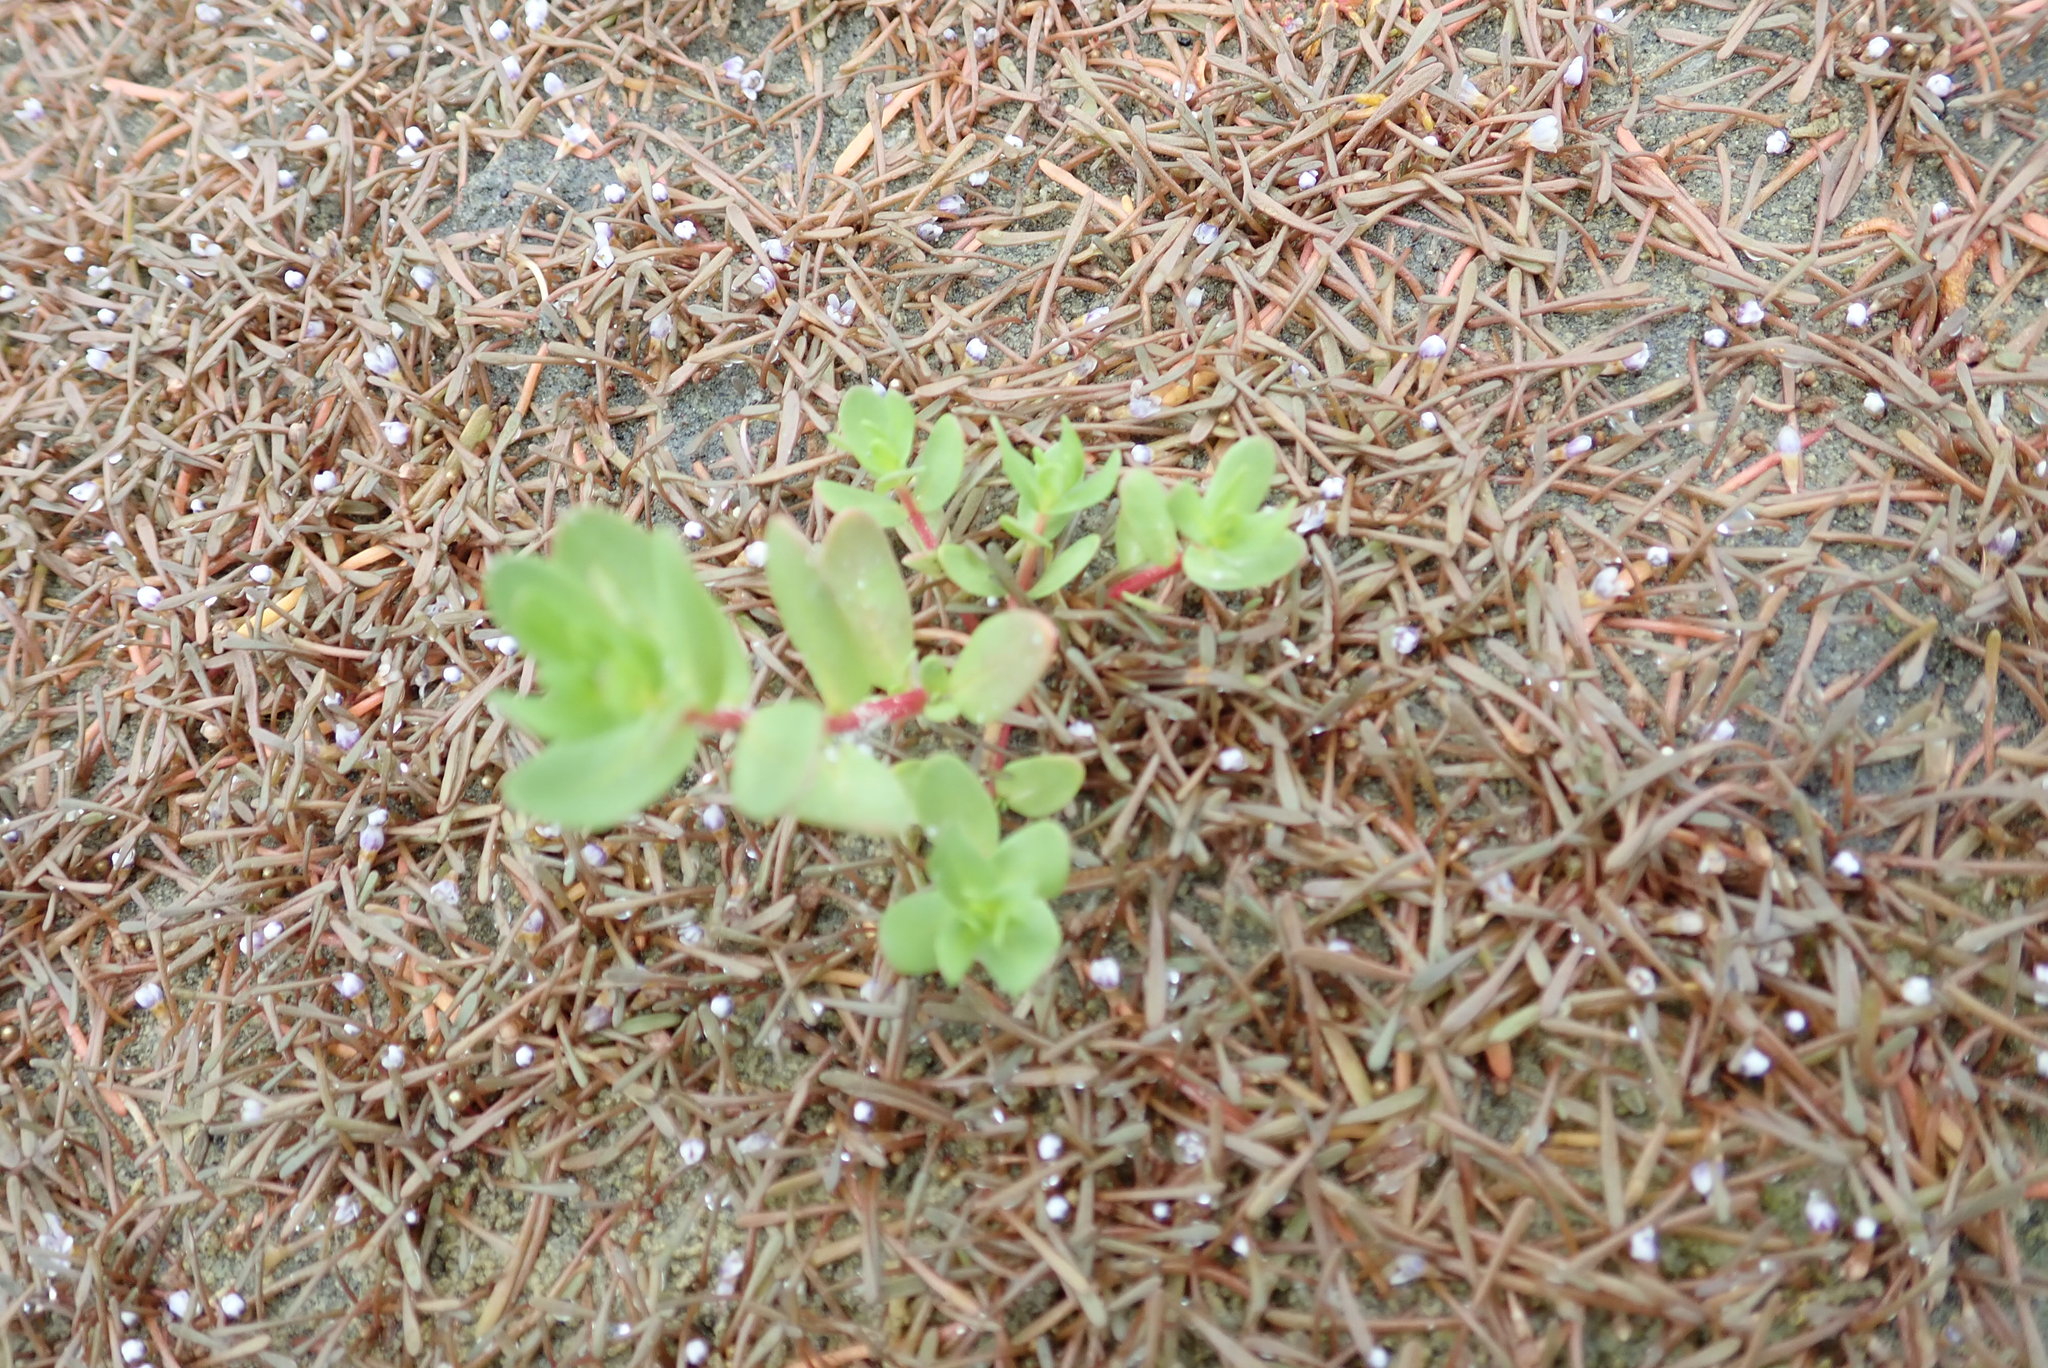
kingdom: Plantae
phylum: Tracheophyta
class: Magnoliopsida
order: Myrtales
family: Lythraceae
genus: Lythrum
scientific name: Lythrum hyssopifolia
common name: Grass-poly
